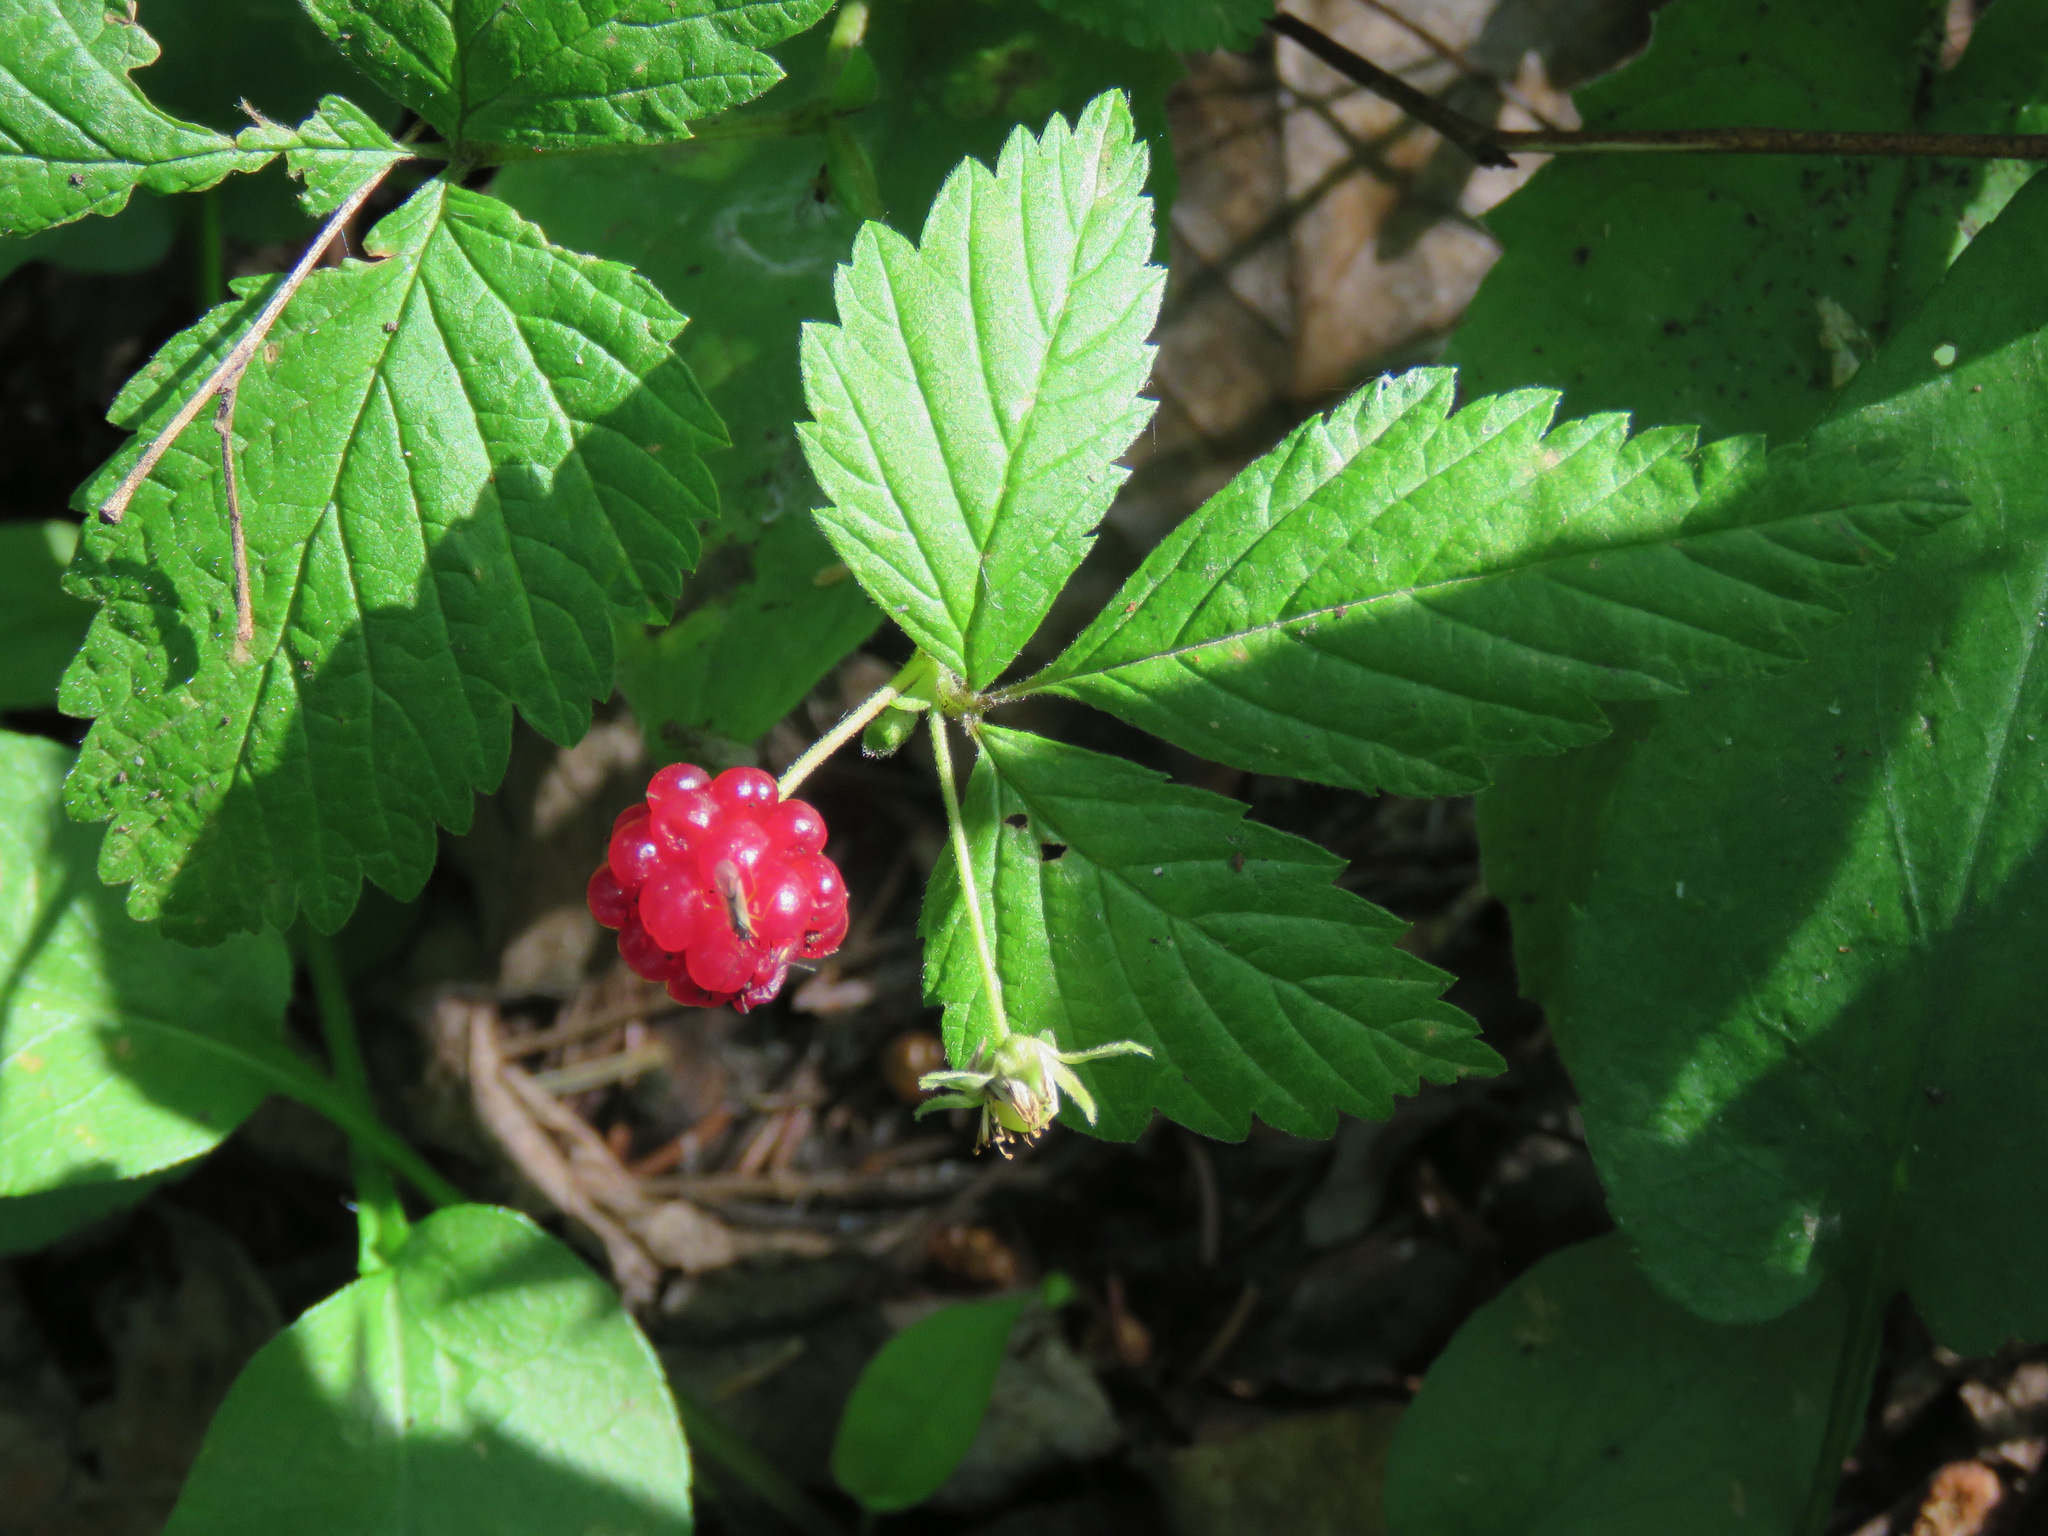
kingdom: Plantae
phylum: Tracheophyta
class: Magnoliopsida
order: Rosales
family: Rosaceae
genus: Rubus
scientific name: Rubus pubescens
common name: Dwarf raspberry
